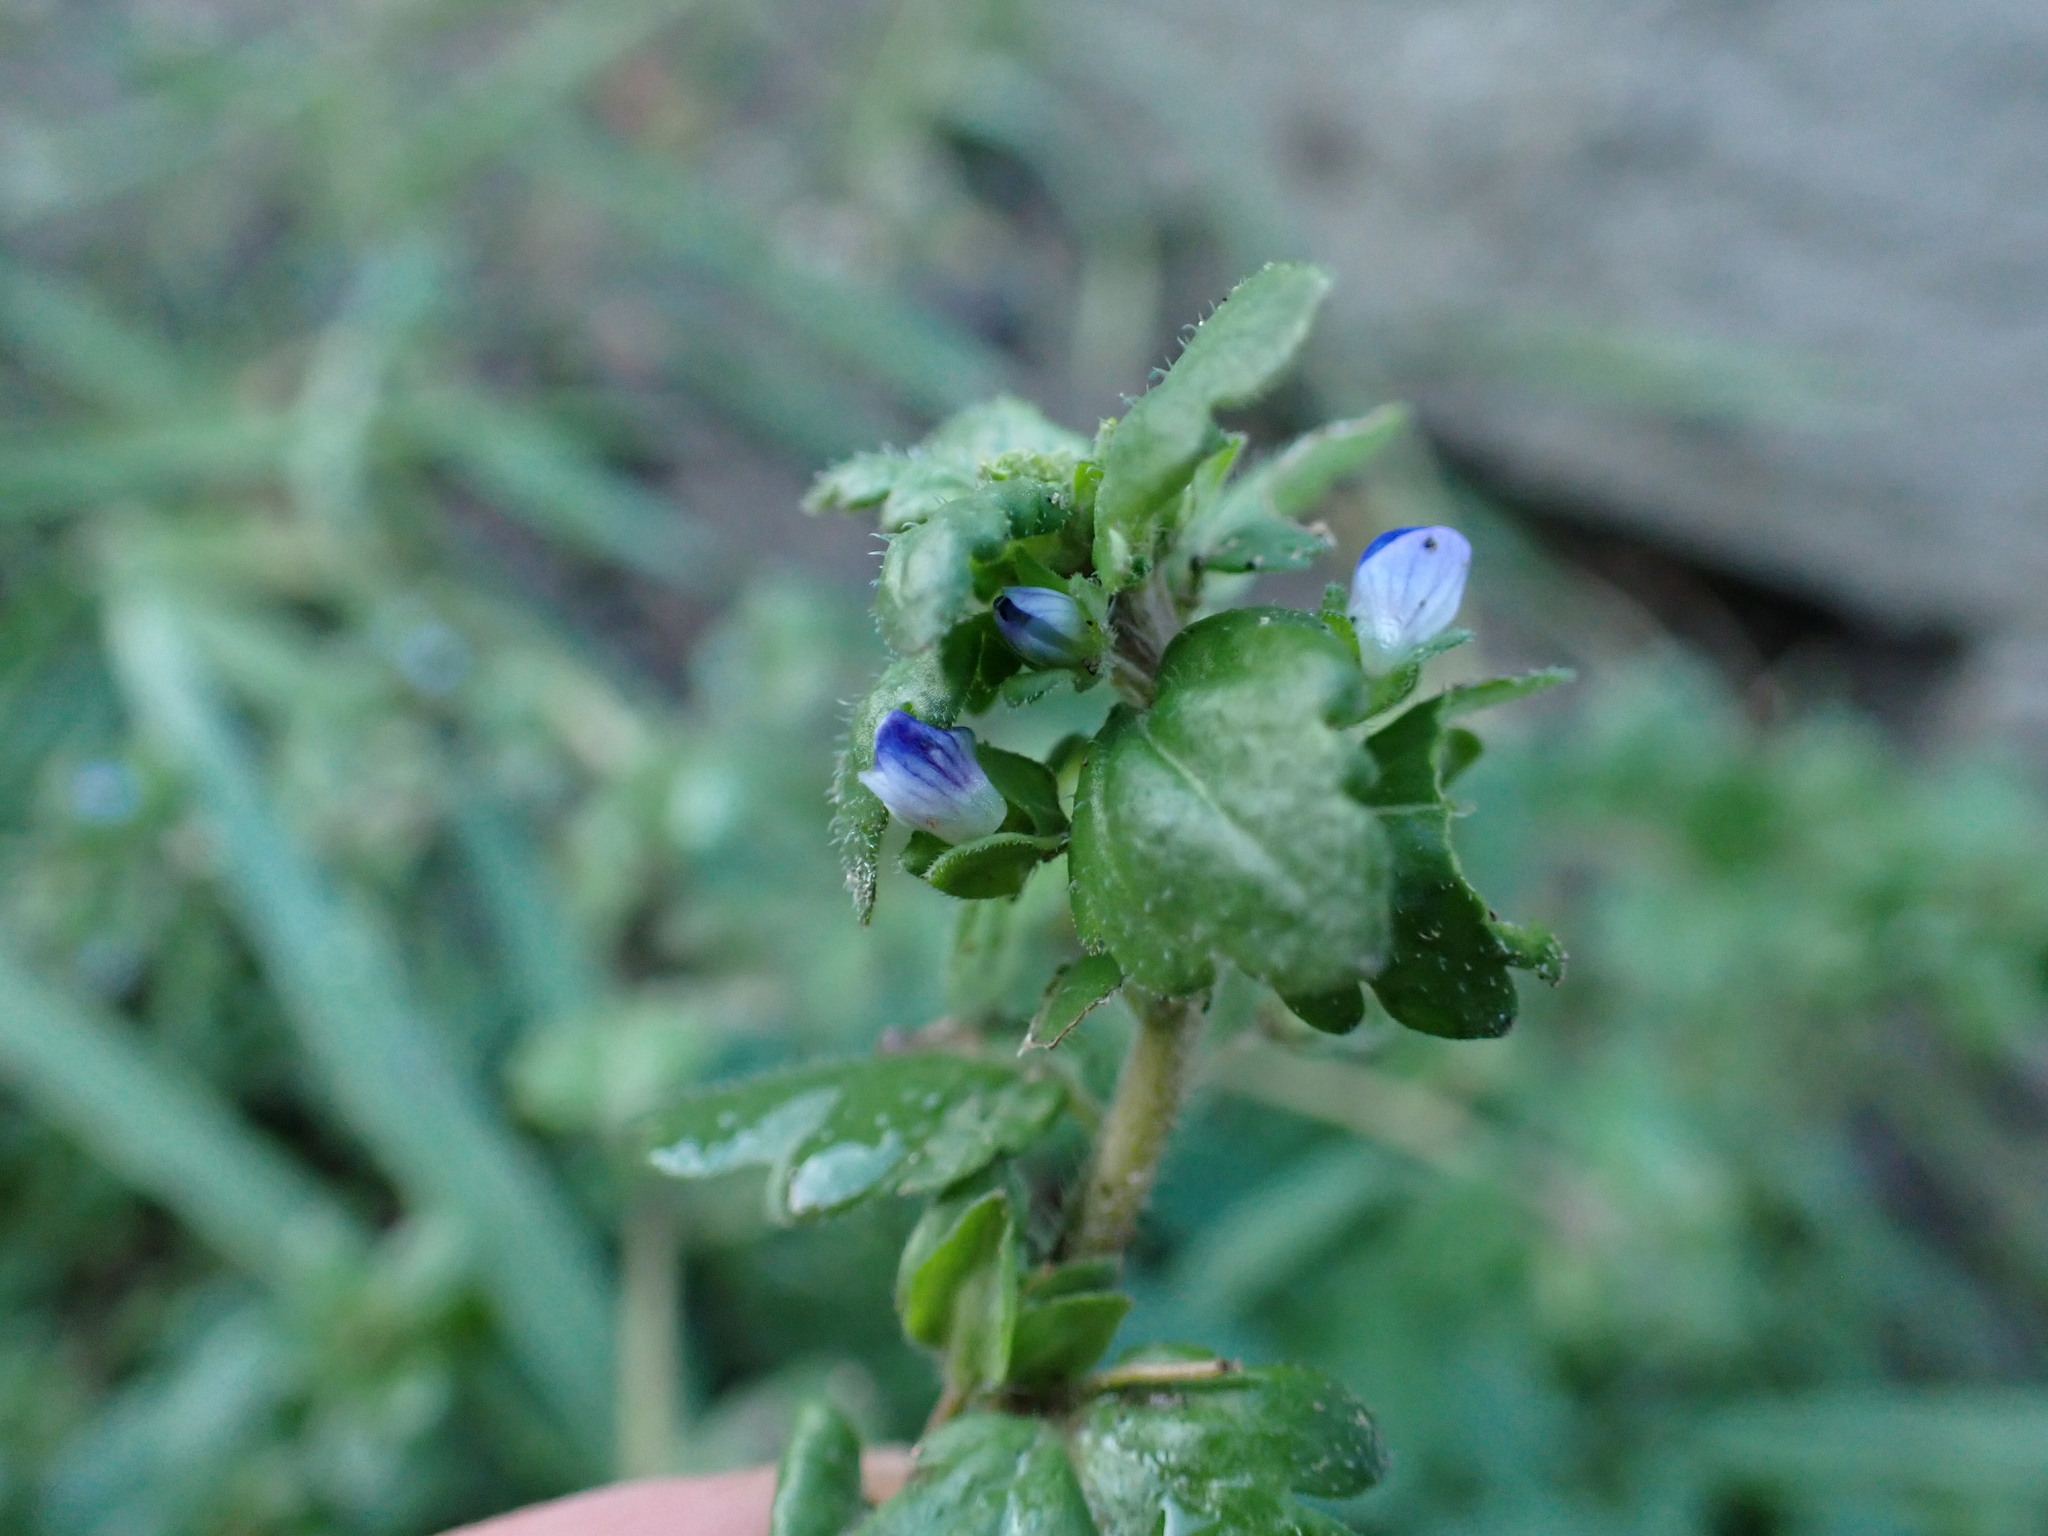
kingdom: Plantae
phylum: Tracheophyta
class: Magnoliopsida
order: Lamiales
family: Plantaginaceae
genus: Veronica
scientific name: Veronica polita
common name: Grey field-speedwell
